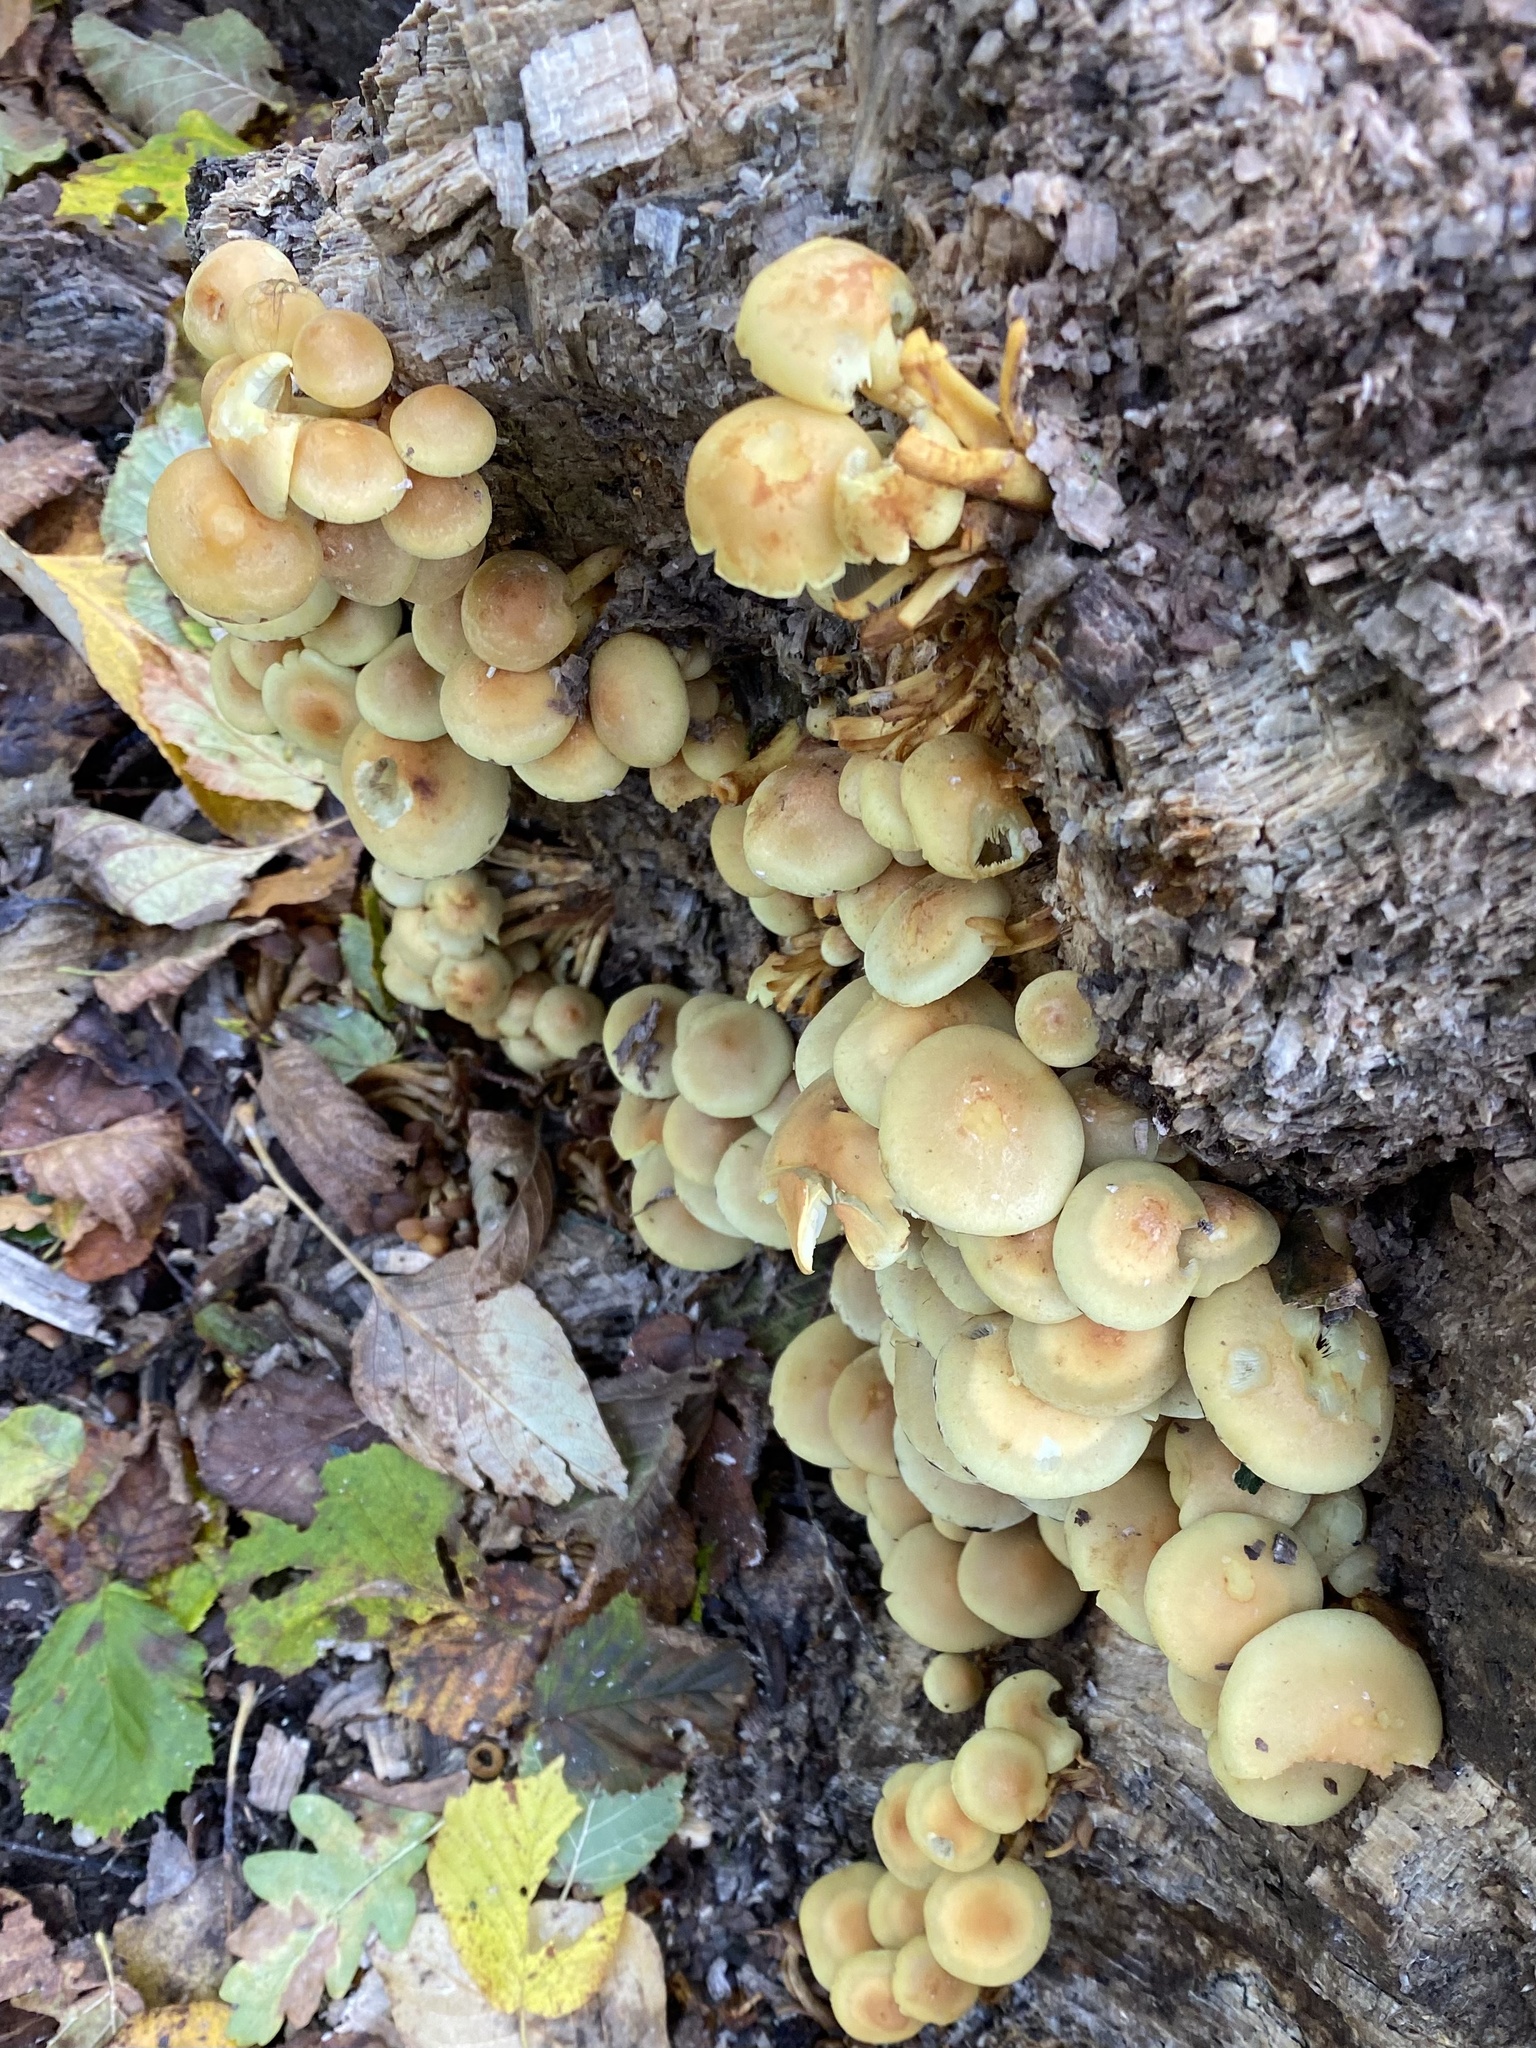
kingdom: Fungi
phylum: Basidiomycota
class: Agaricomycetes
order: Agaricales
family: Strophariaceae
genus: Hypholoma
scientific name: Hypholoma fasciculare
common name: Sulphur tuft
